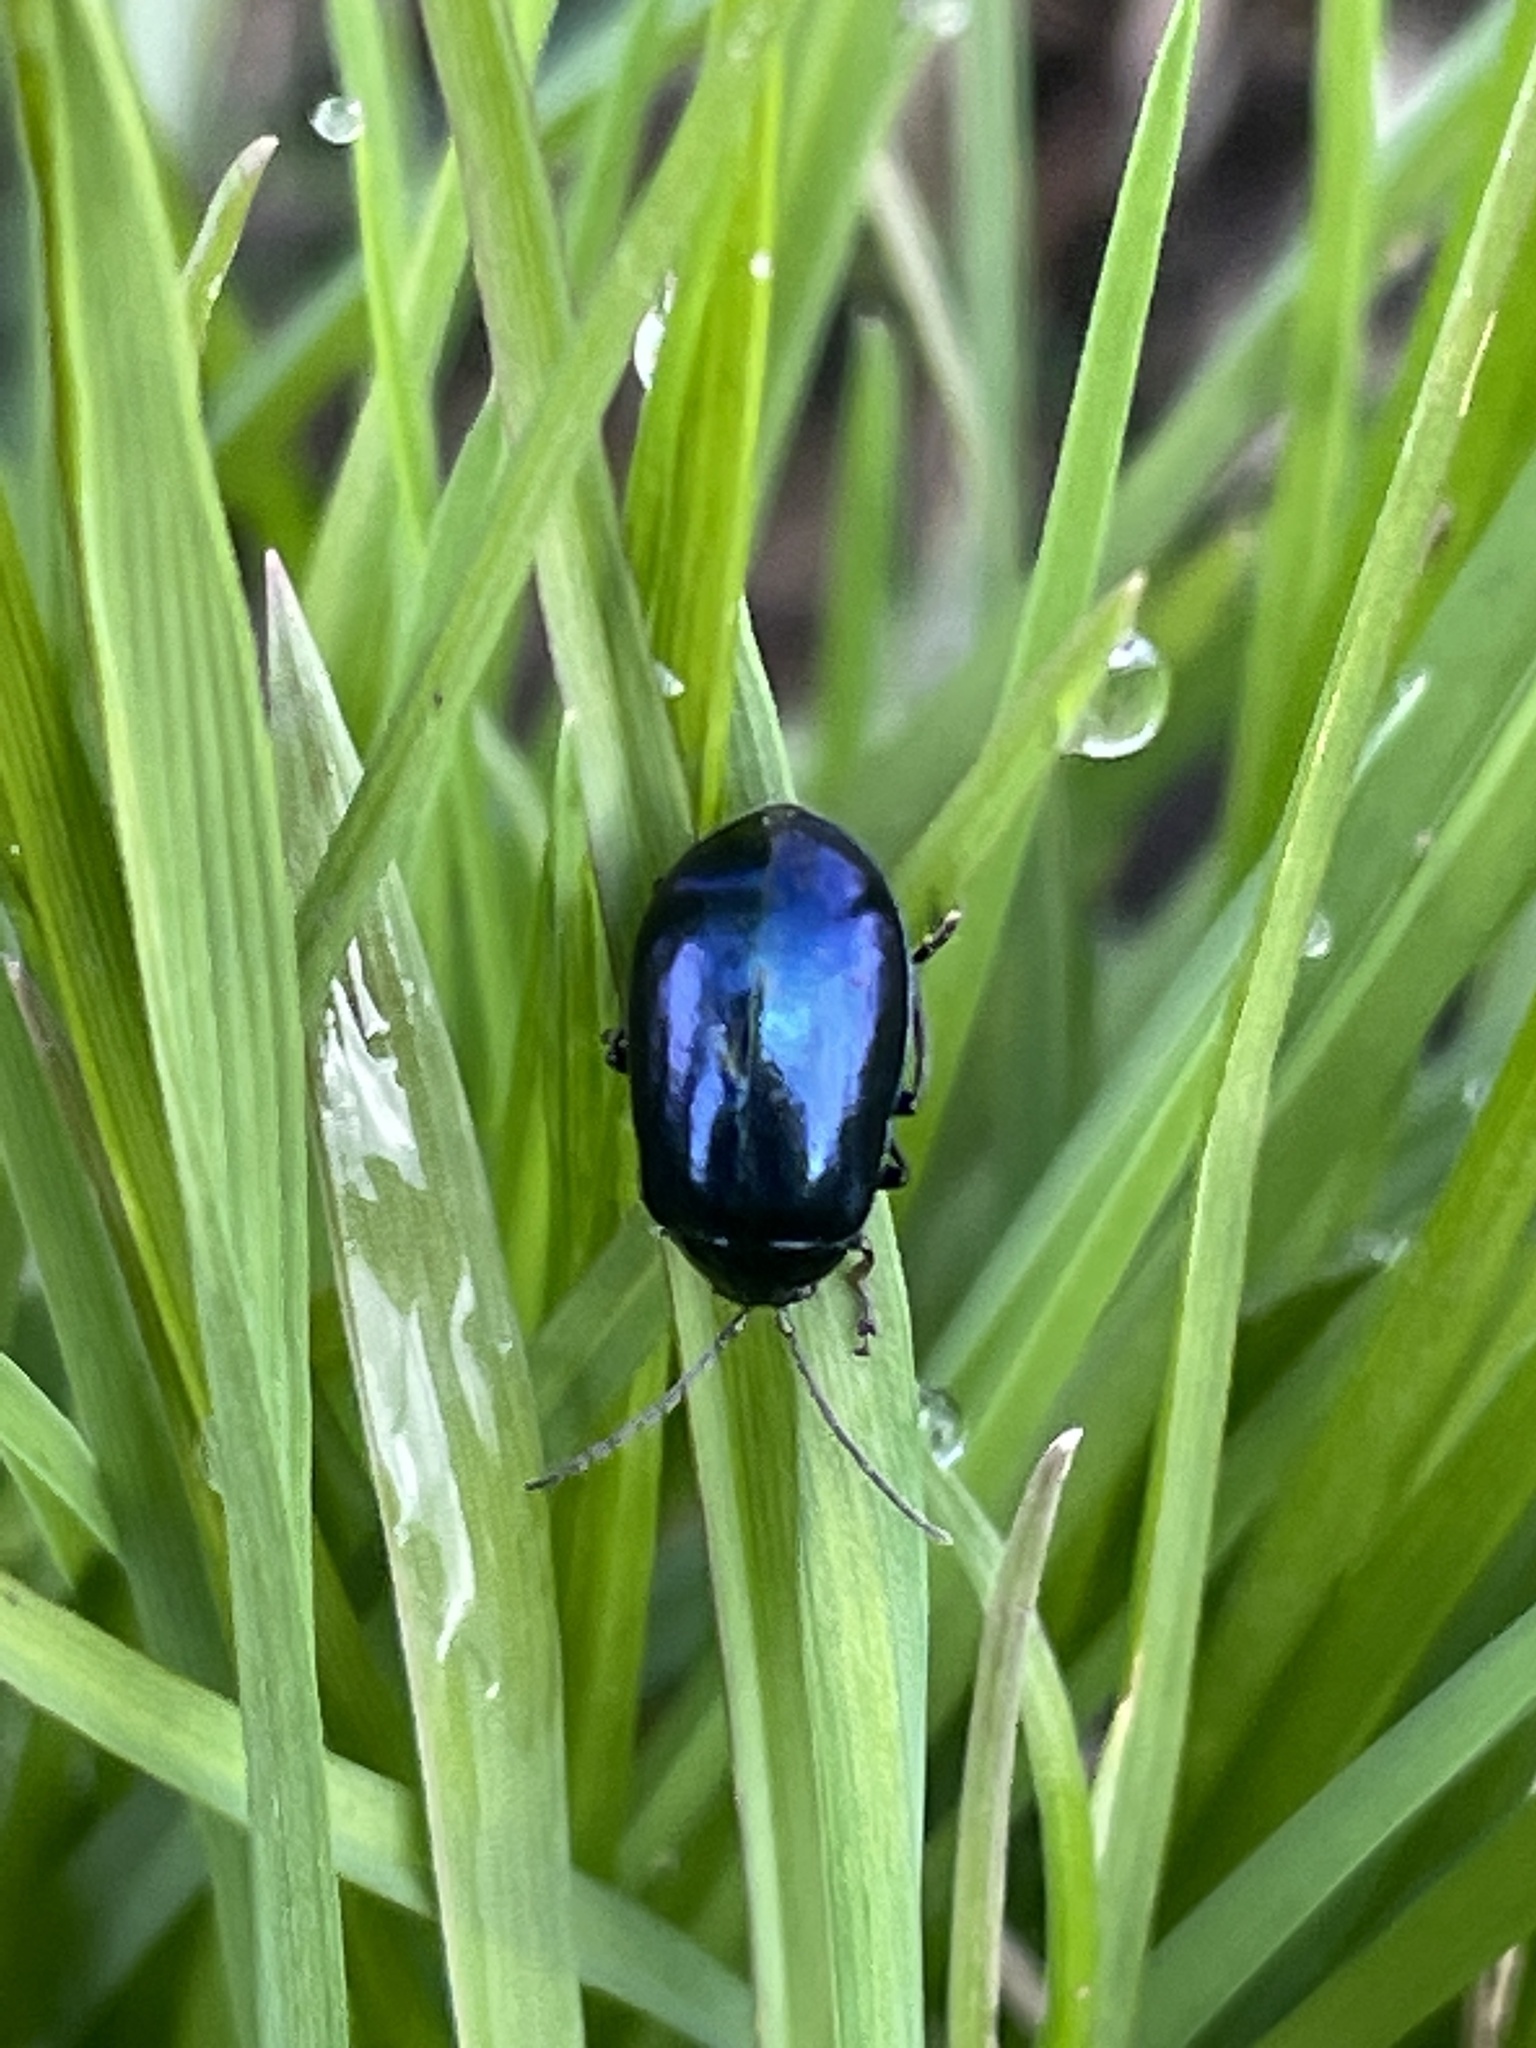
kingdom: Animalia
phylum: Arthropoda
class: Insecta
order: Coleoptera
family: Chrysomelidae
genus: Agelastica
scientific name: Agelastica alni
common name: Alder leaf beetle
